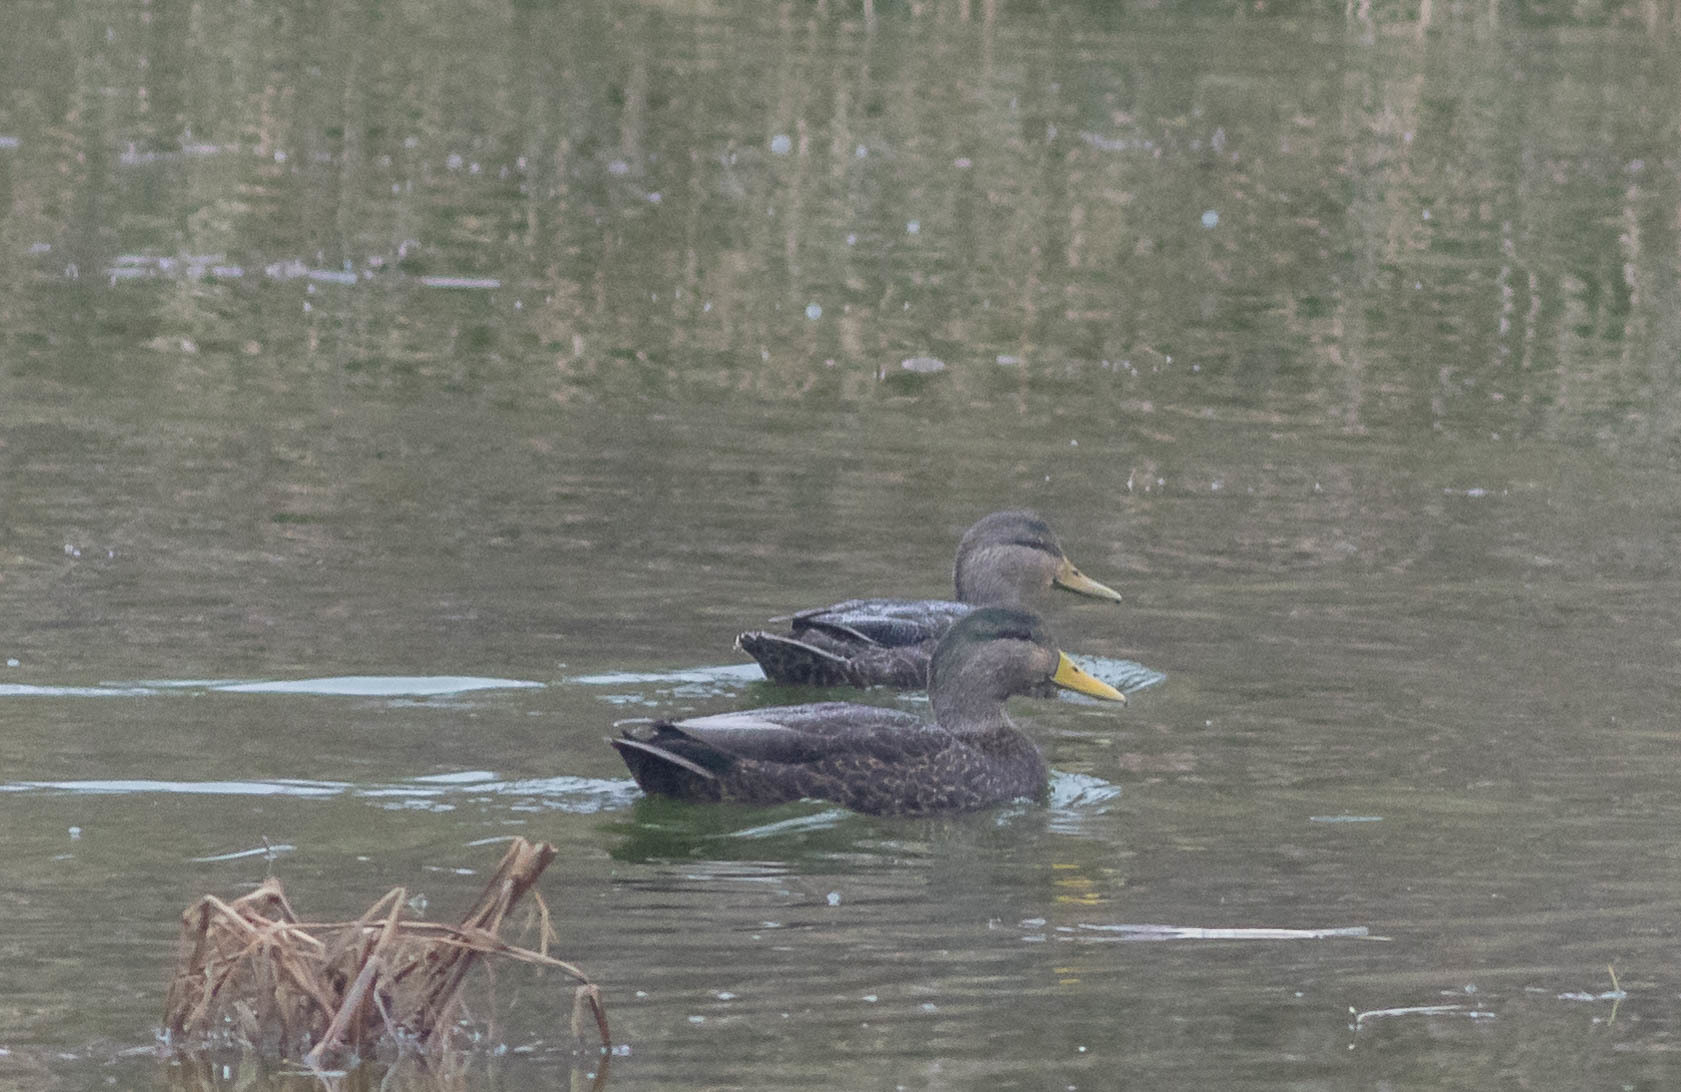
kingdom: Animalia
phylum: Chordata
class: Aves
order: Anseriformes
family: Anatidae
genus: Anas
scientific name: Anas rubripes
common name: American black duck
